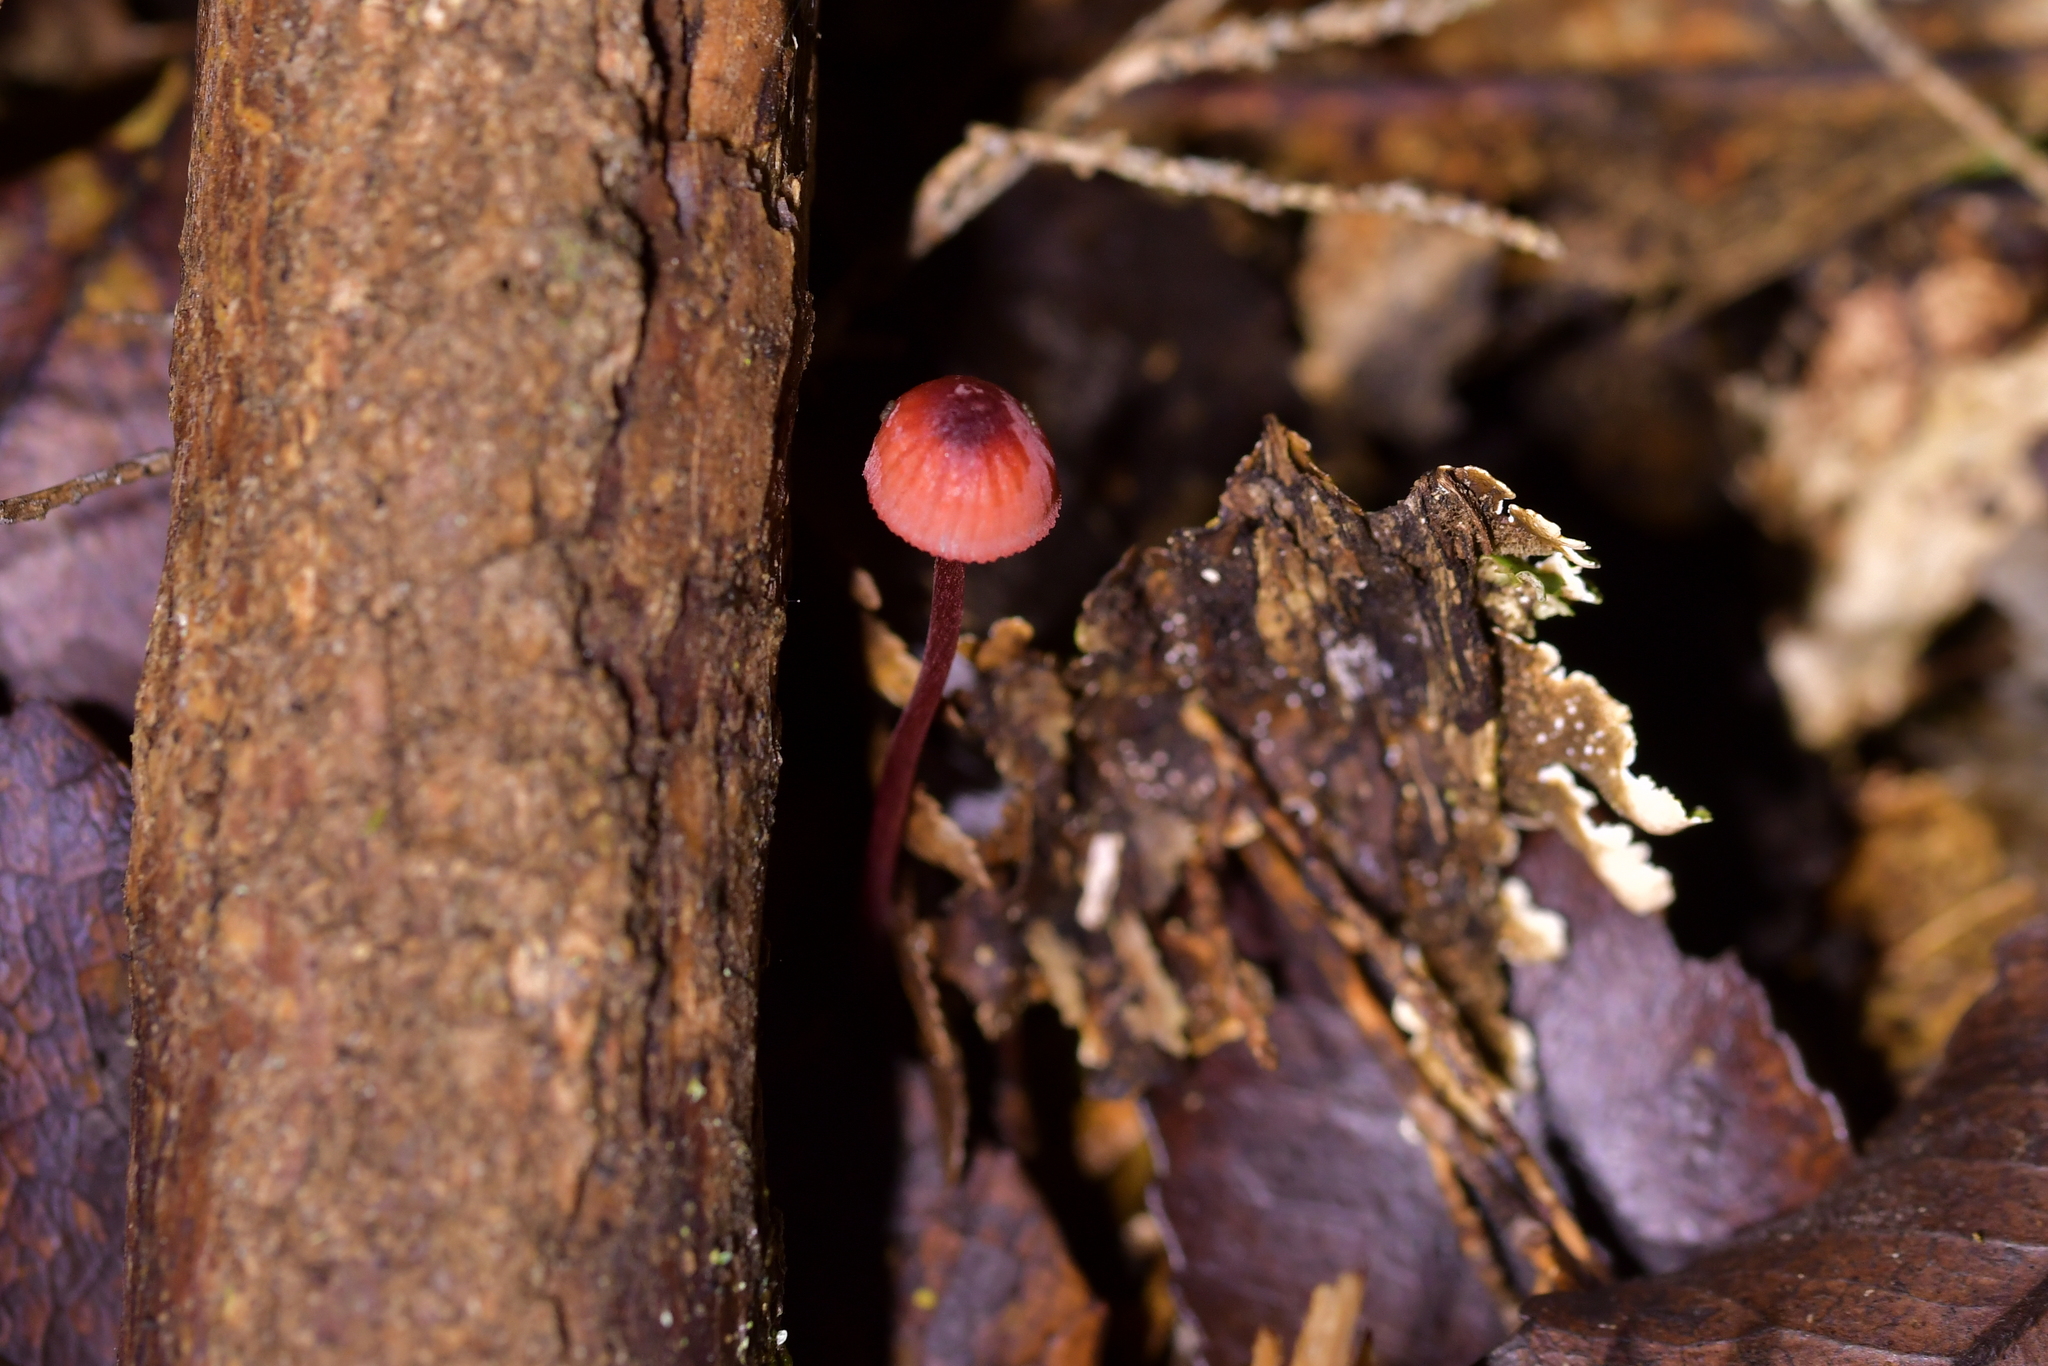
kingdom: Fungi
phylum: Basidiomycota
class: Agaricomycetes
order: Agaricales
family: Mycenaceae
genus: Mycena
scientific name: Mycena ura
